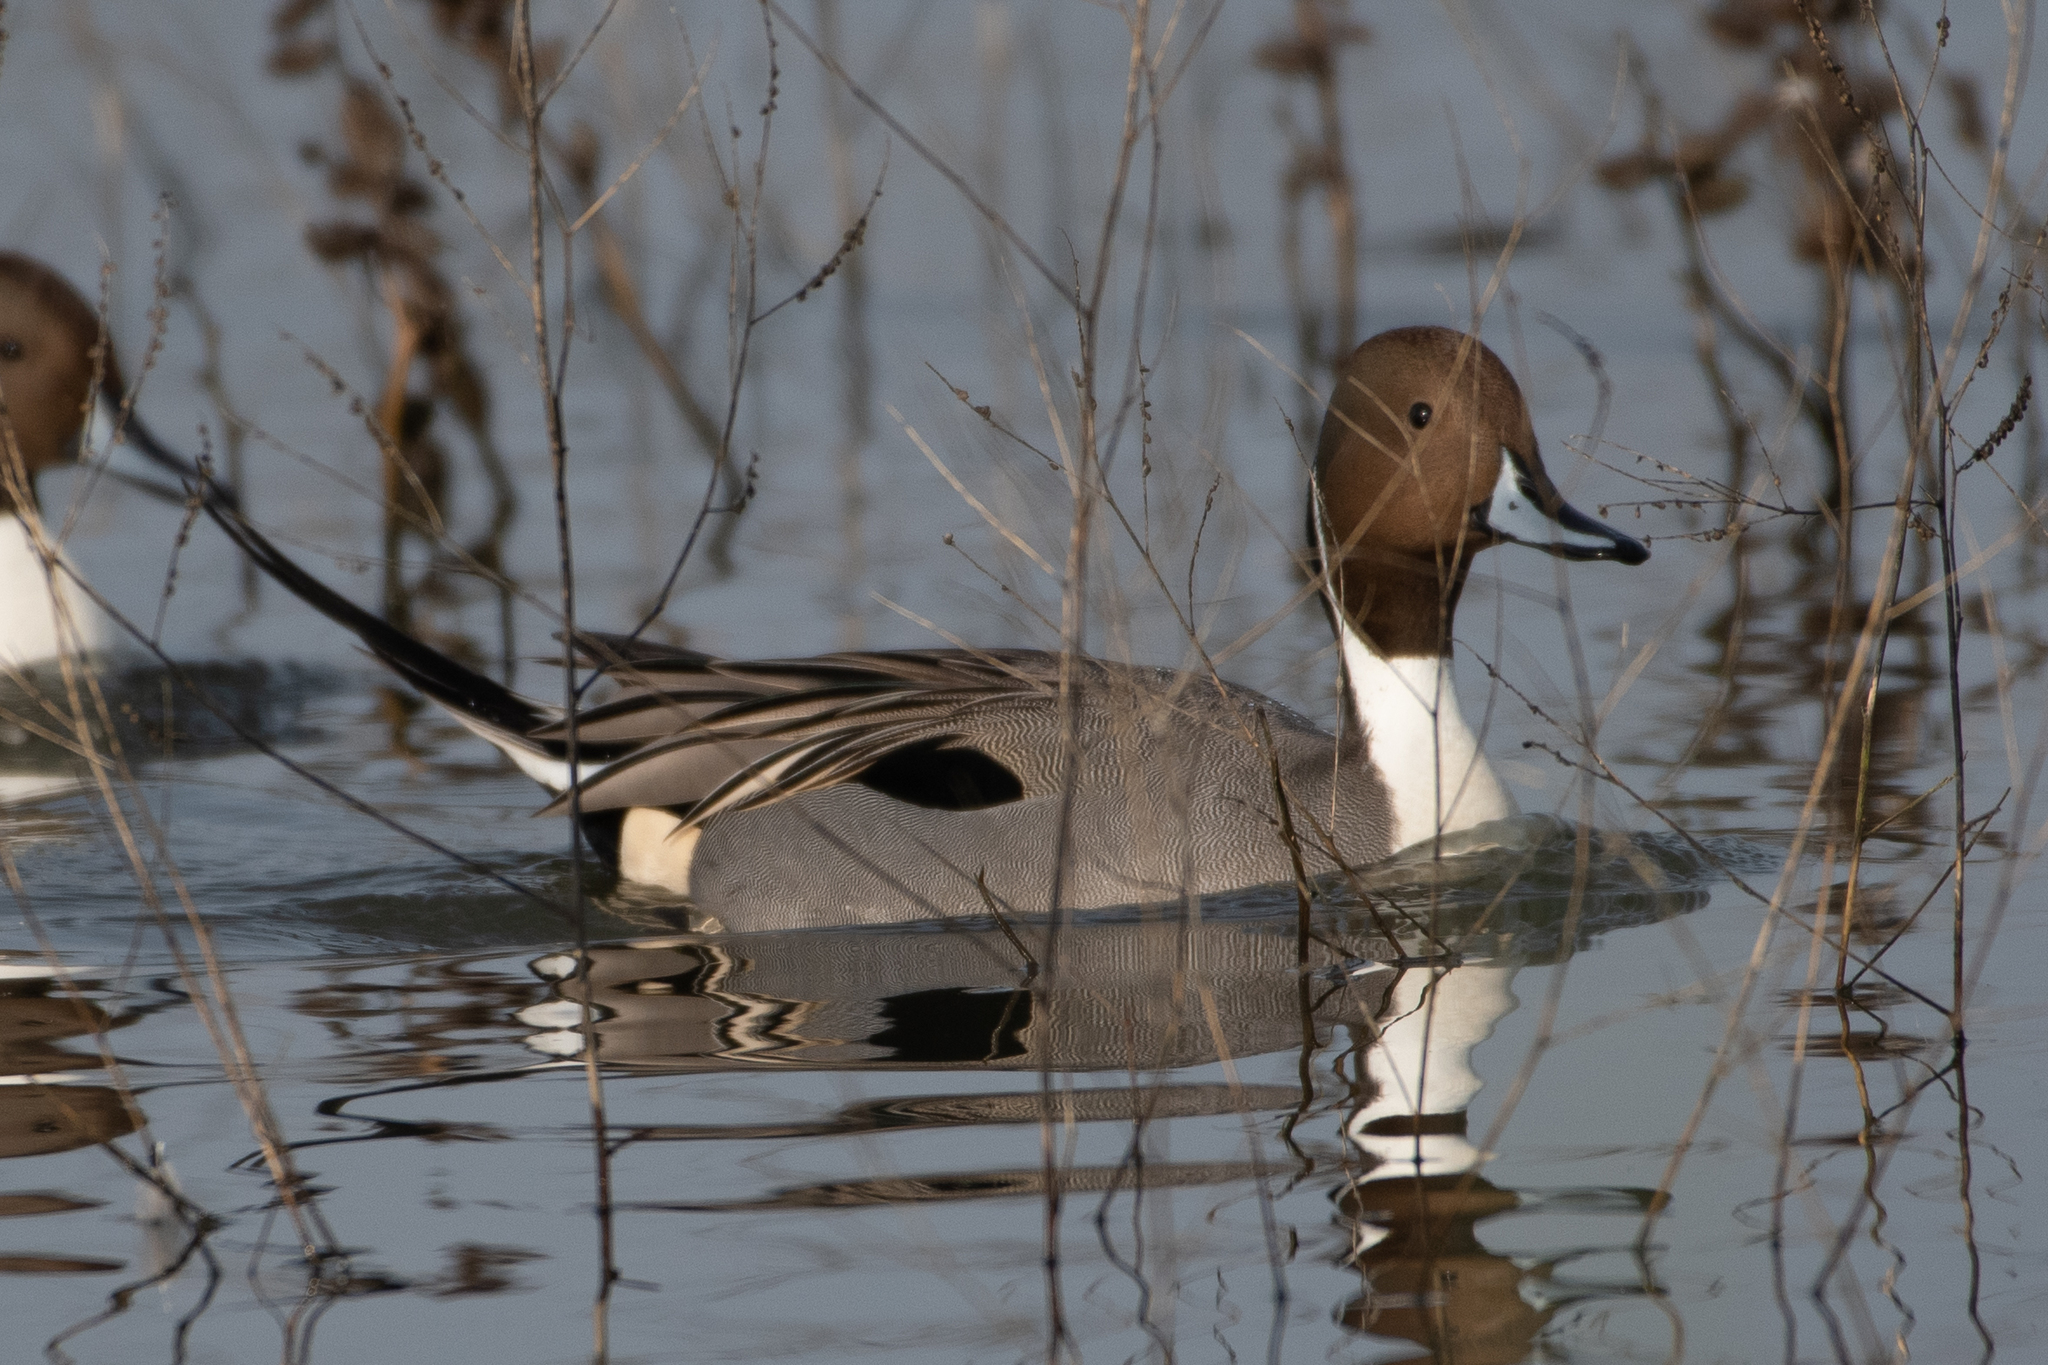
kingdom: Animalia
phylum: Chordata
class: Aves
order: Anseriformes
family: Anatidae
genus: Anas
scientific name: Anas acuta
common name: Northern pintail
